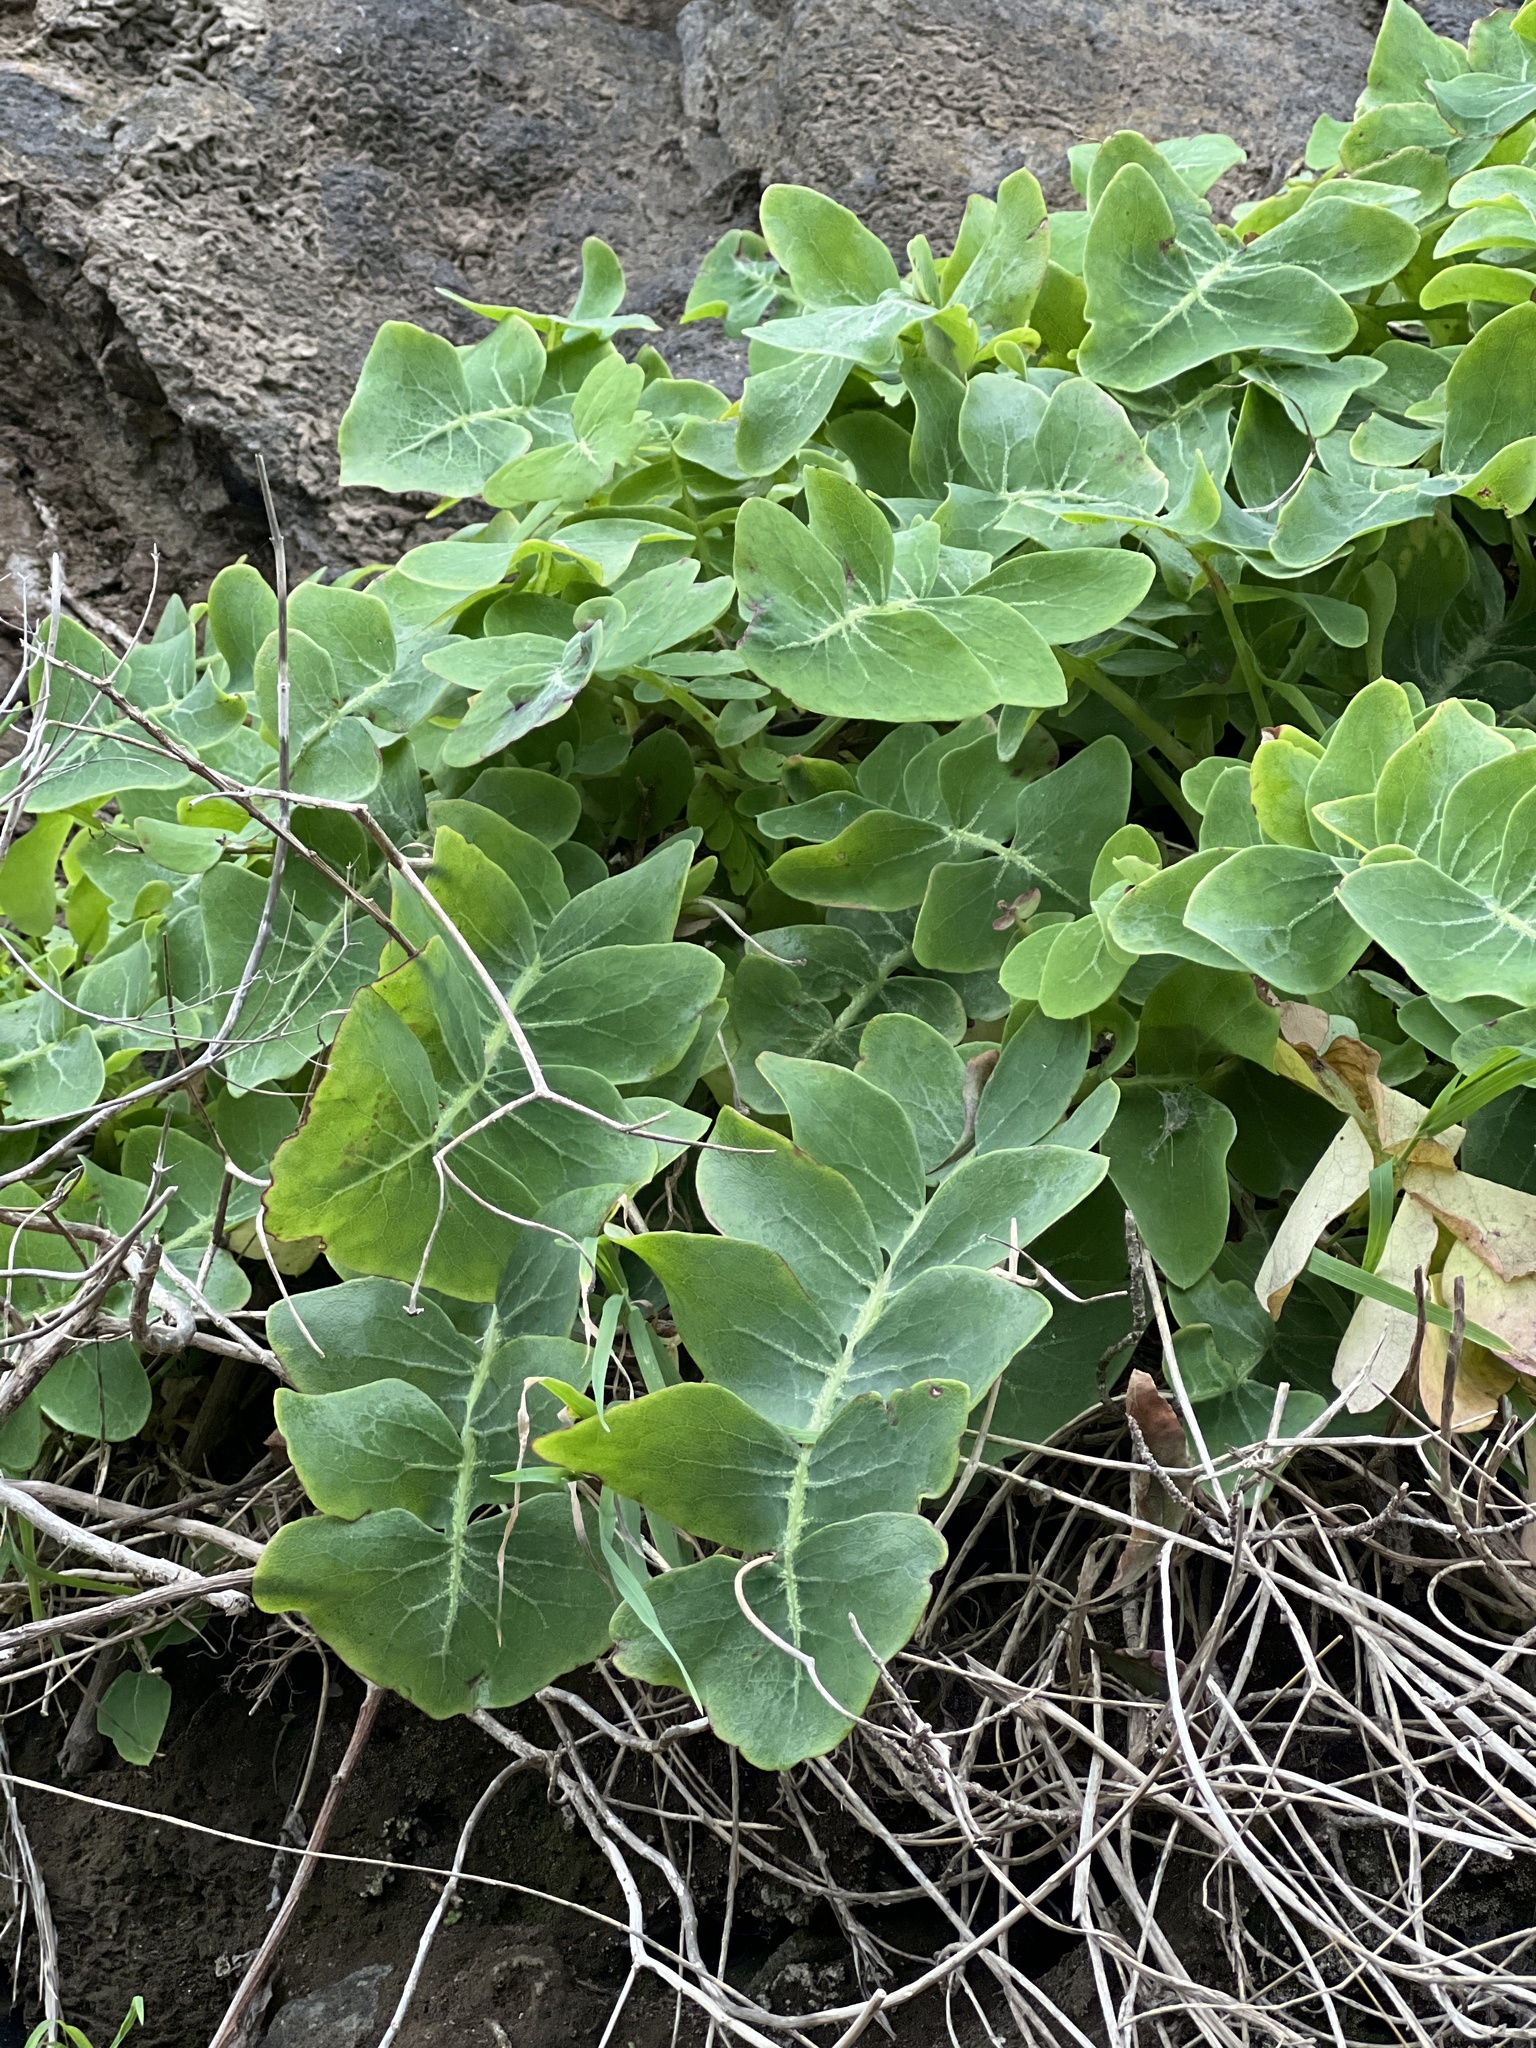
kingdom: Plantae
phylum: Tracheophyta
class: Magnoliopsida
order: Asterales
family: Asteraceae
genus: Sonchus
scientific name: Sonchus latifolius
